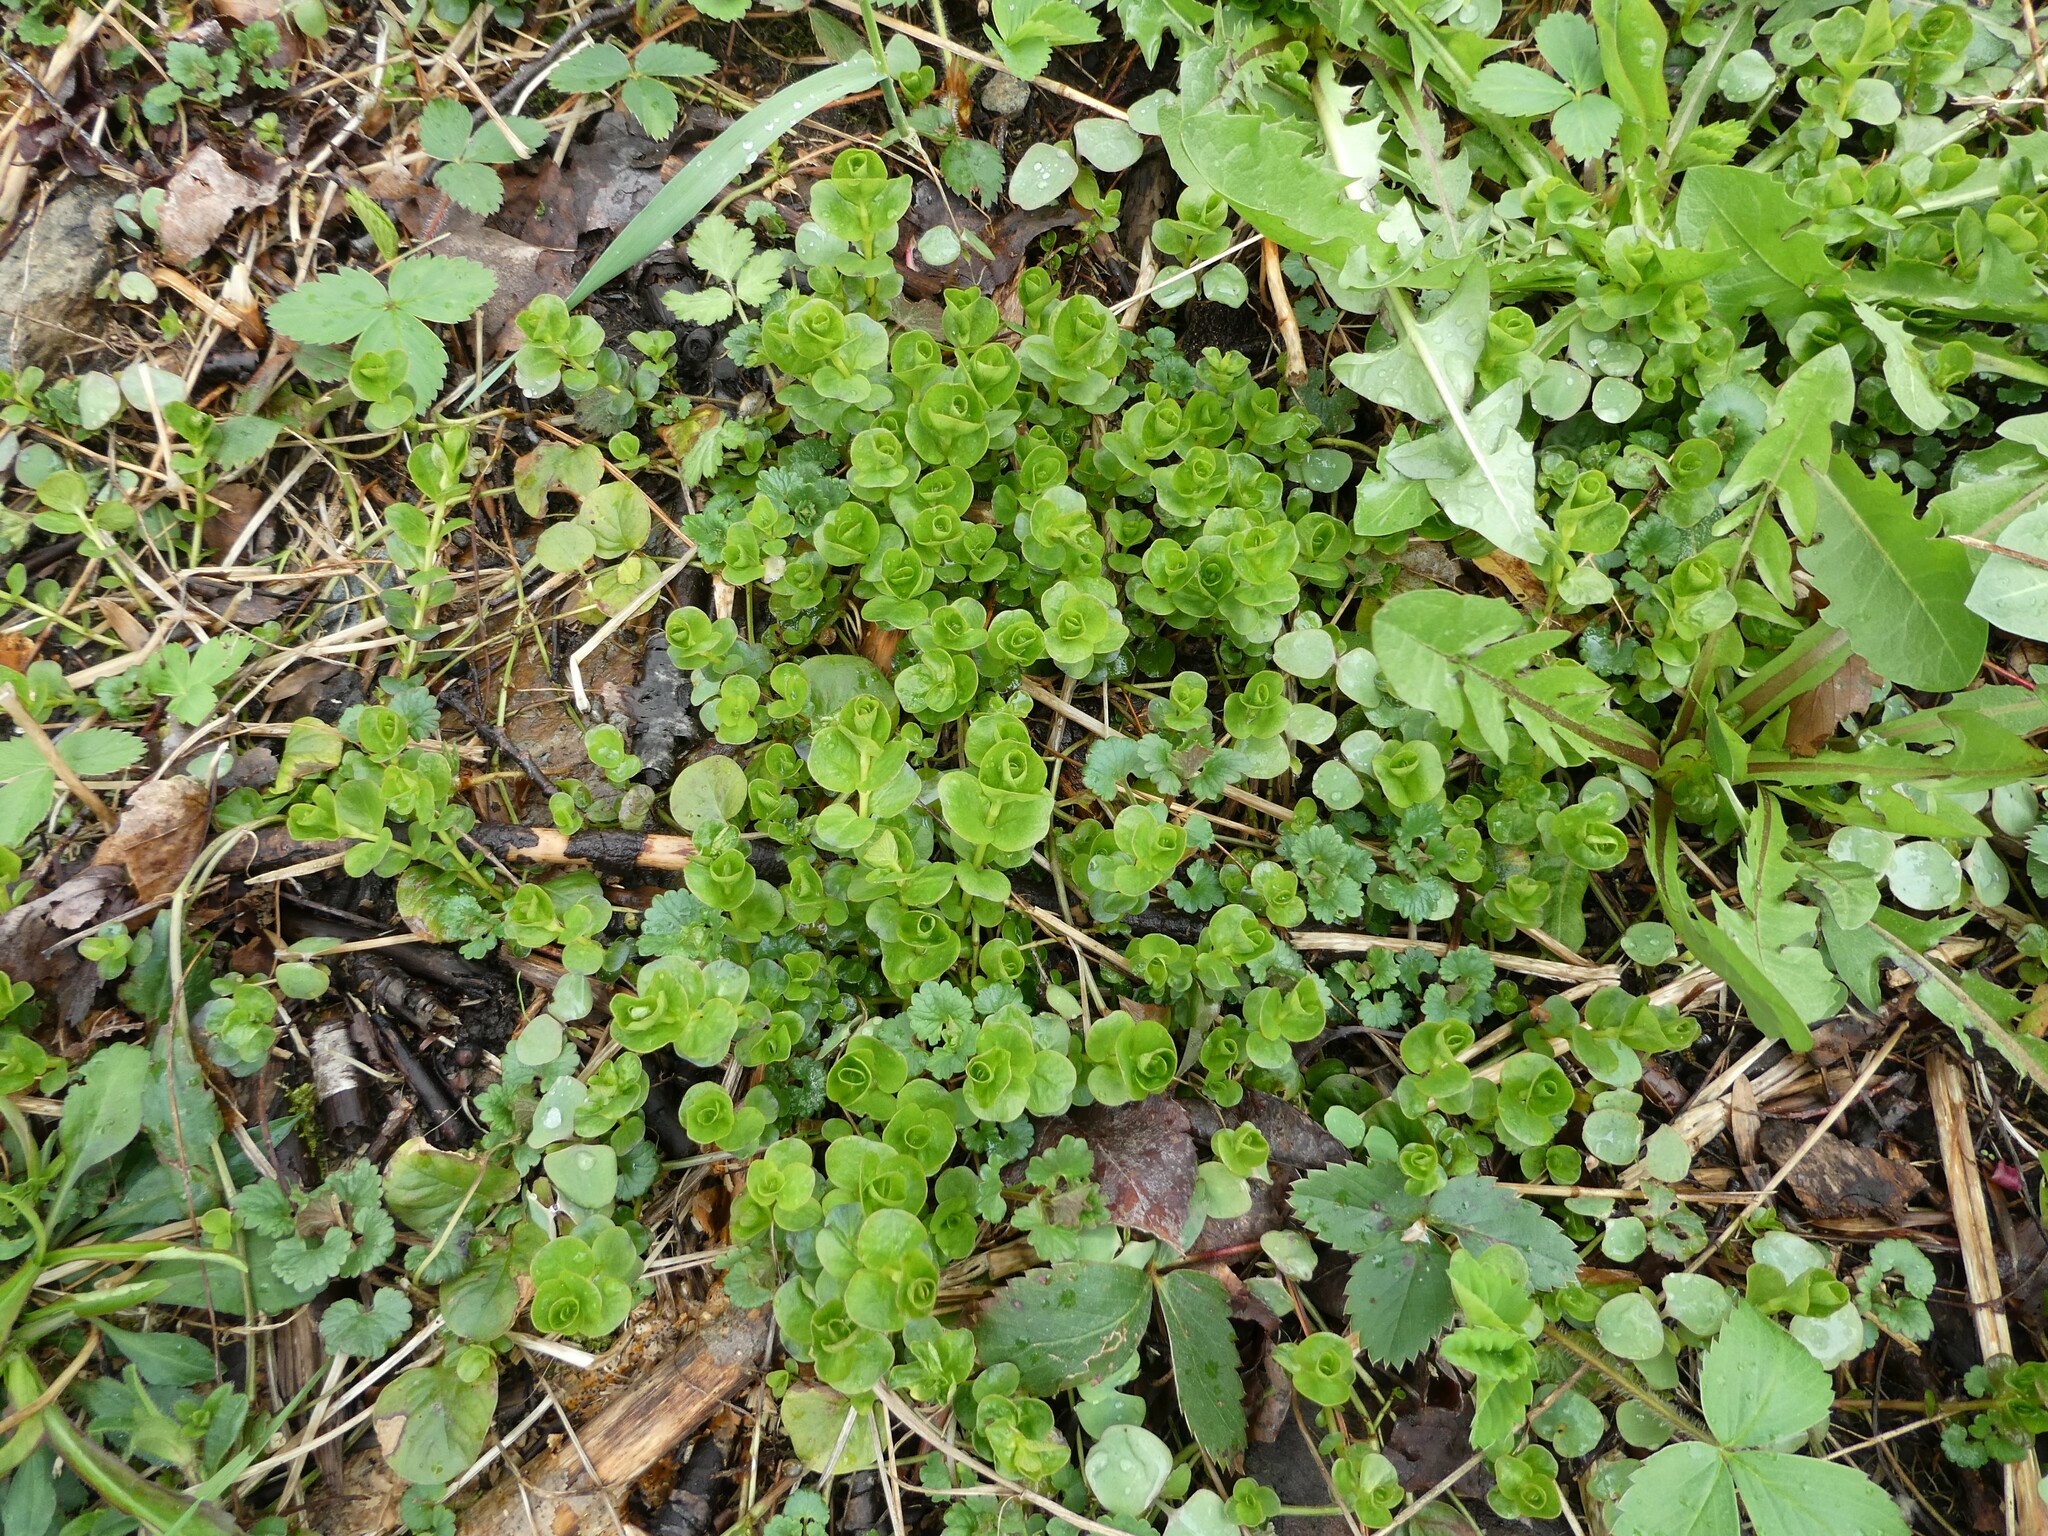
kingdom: Plantae
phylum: Tracheophyta
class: Magnoliopsida
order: Ericales
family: Primulaceae
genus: Lysimachia
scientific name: Lysimachia nummularia
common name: Moneywort
